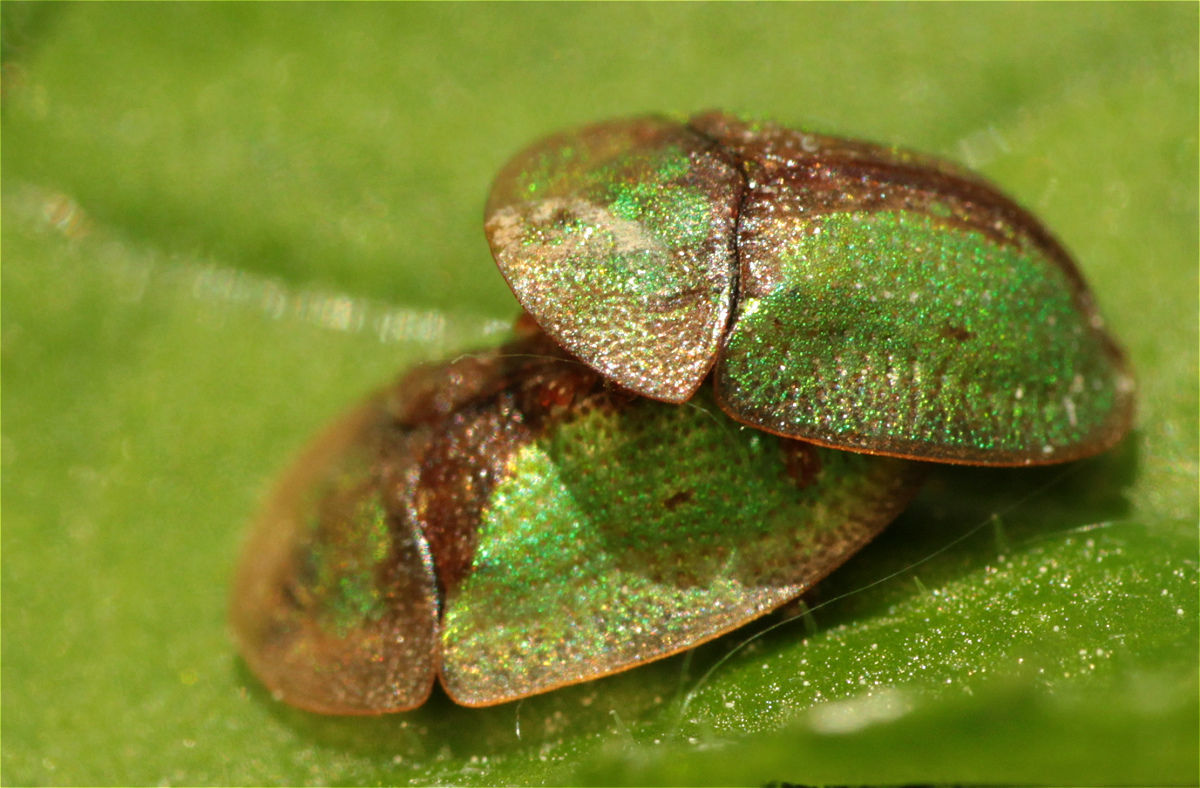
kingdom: Animalia
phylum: Arthropoda
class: Insecta
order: Coleoptera
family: Chrysomelidae
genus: Cassida
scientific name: Cassida vibex
